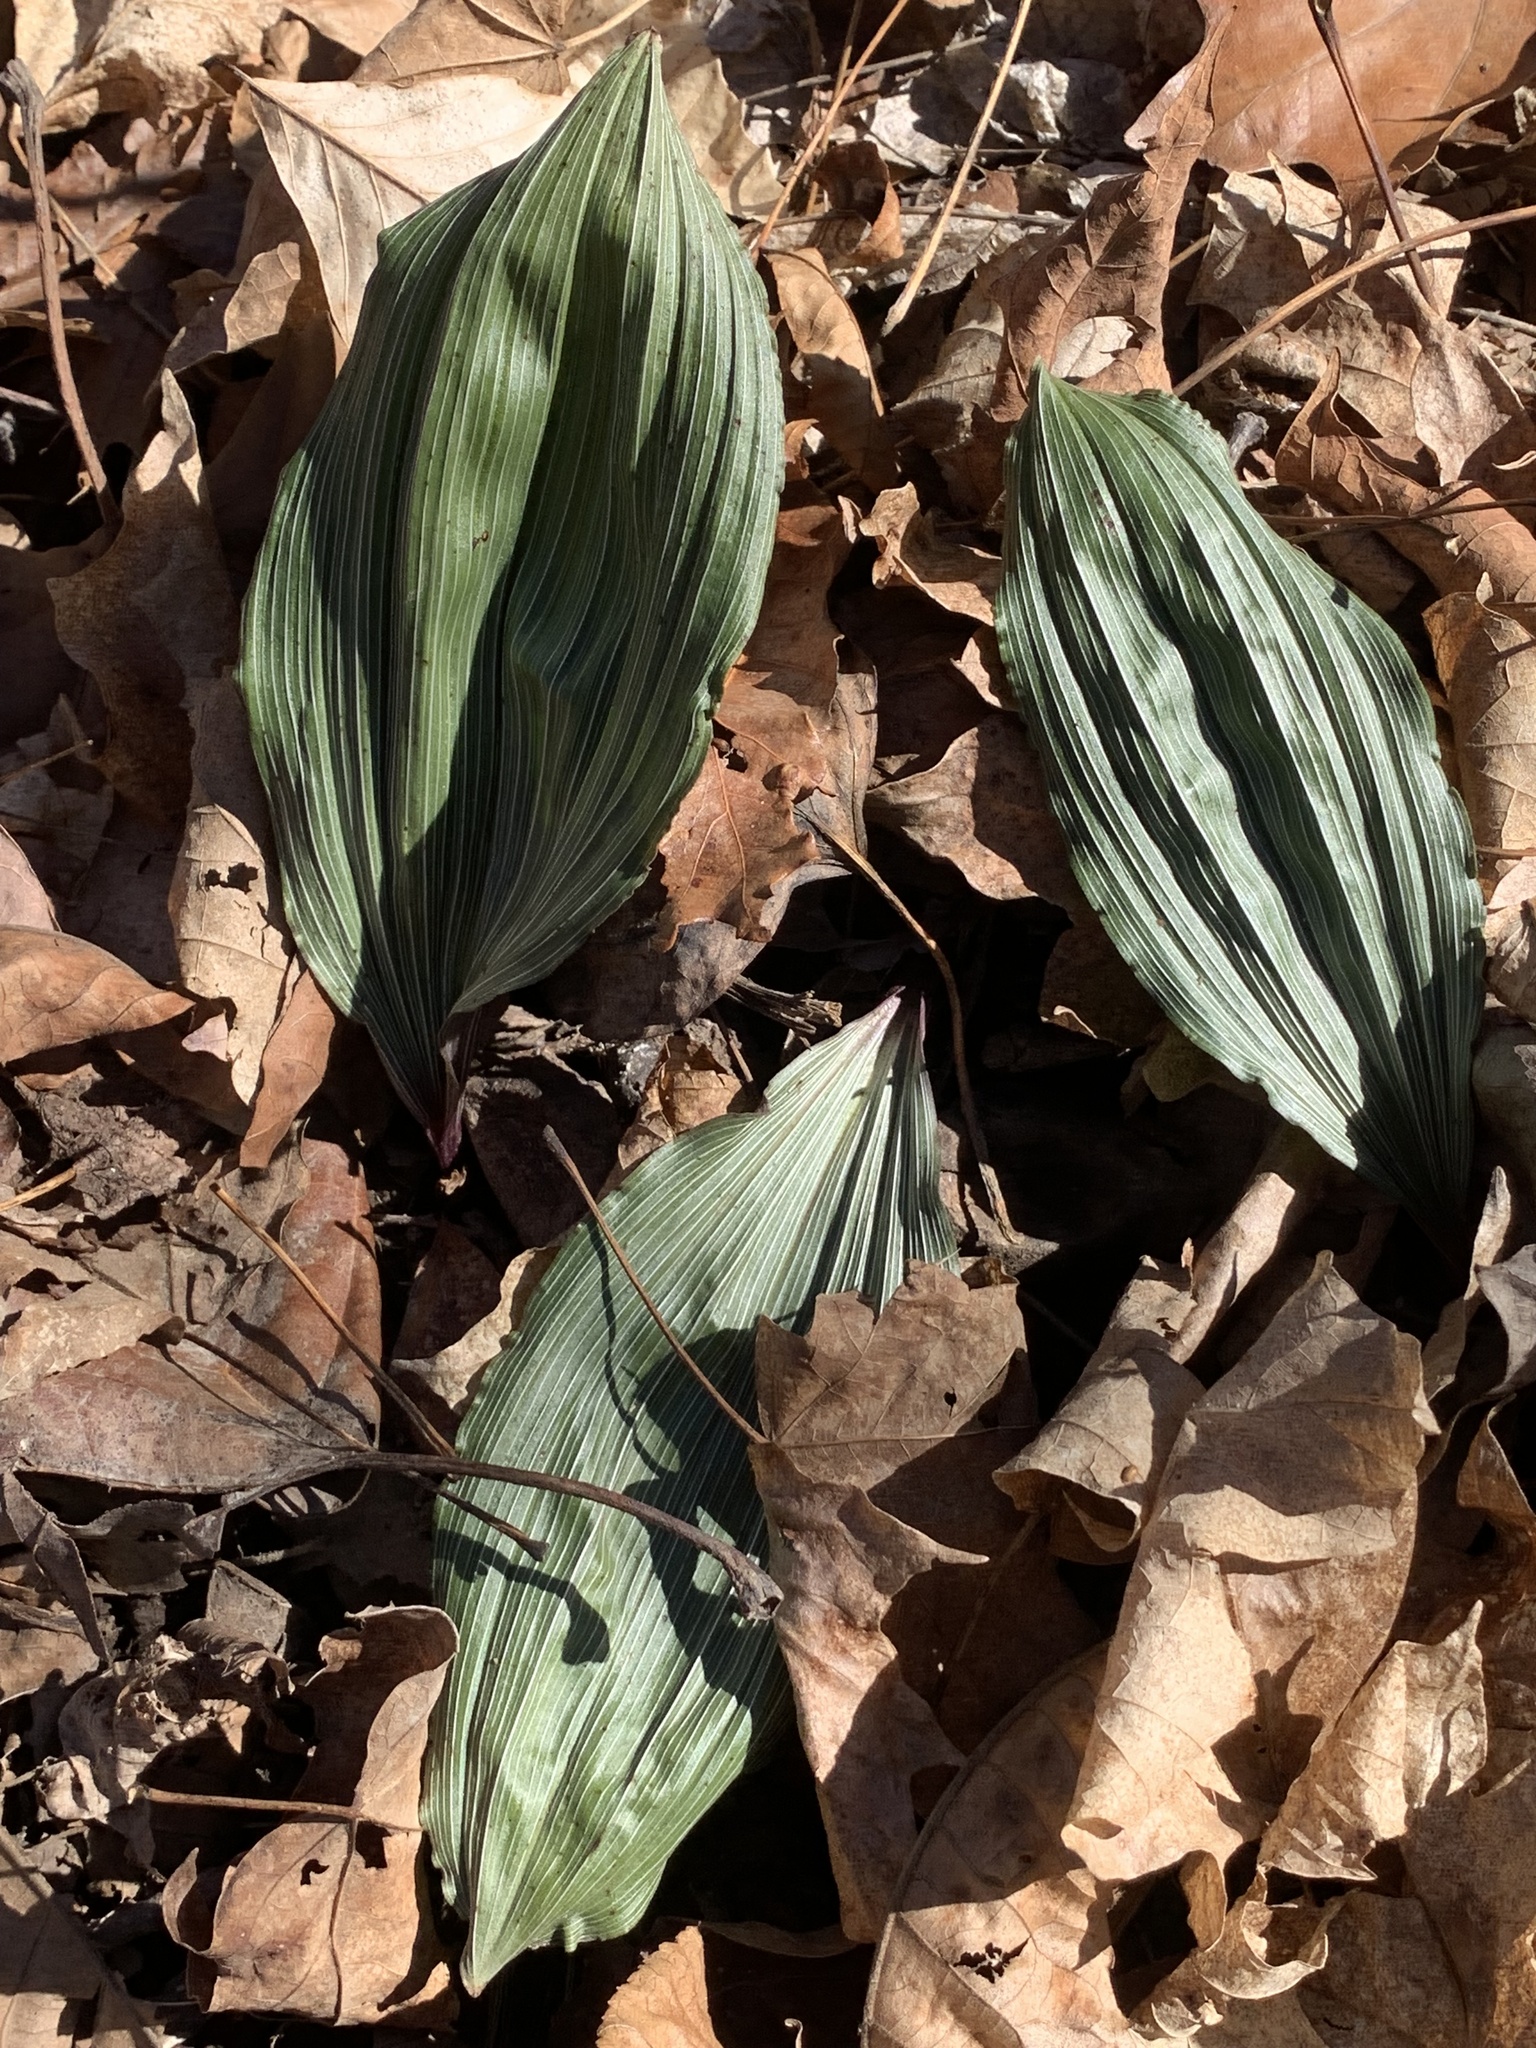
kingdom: Plantae
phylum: Tracheophyta
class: Liliopsida
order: Asparagales
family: Orchidaceae
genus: Aplectrum
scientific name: Aplectrum hyemale
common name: Adam-and-eve
